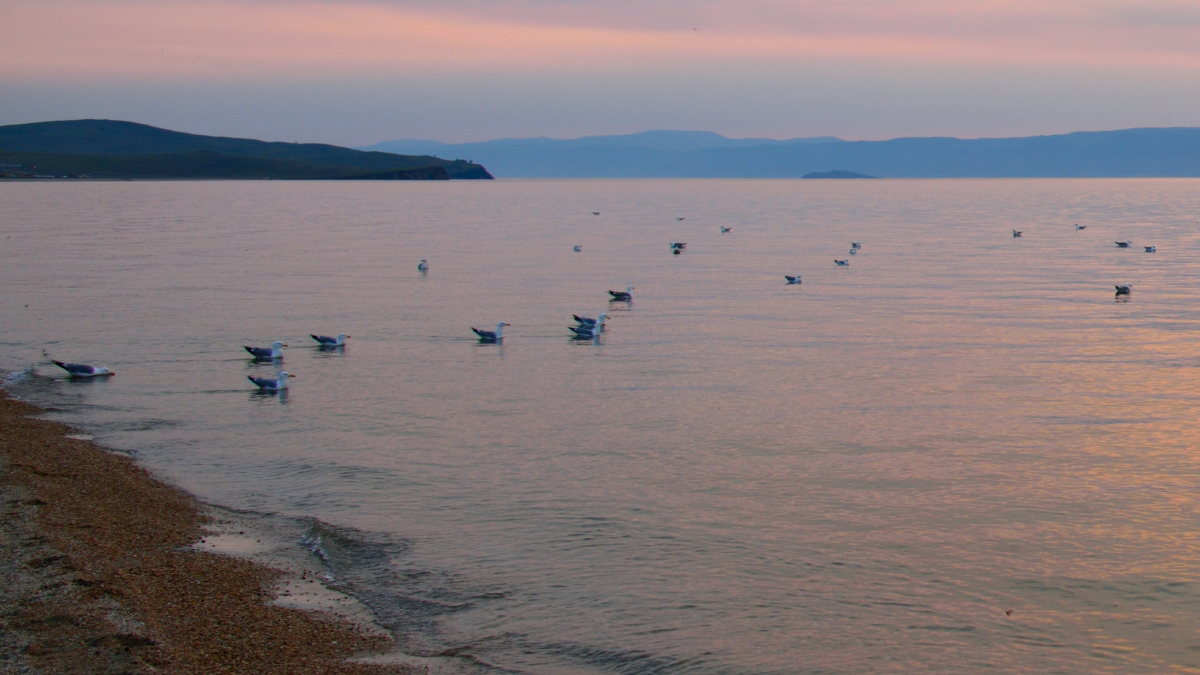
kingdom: Animalia
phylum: Chordata
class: Aves
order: Charadriiformes
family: Laridae
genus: Larus
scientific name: Larus vegae
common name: Vega gull
